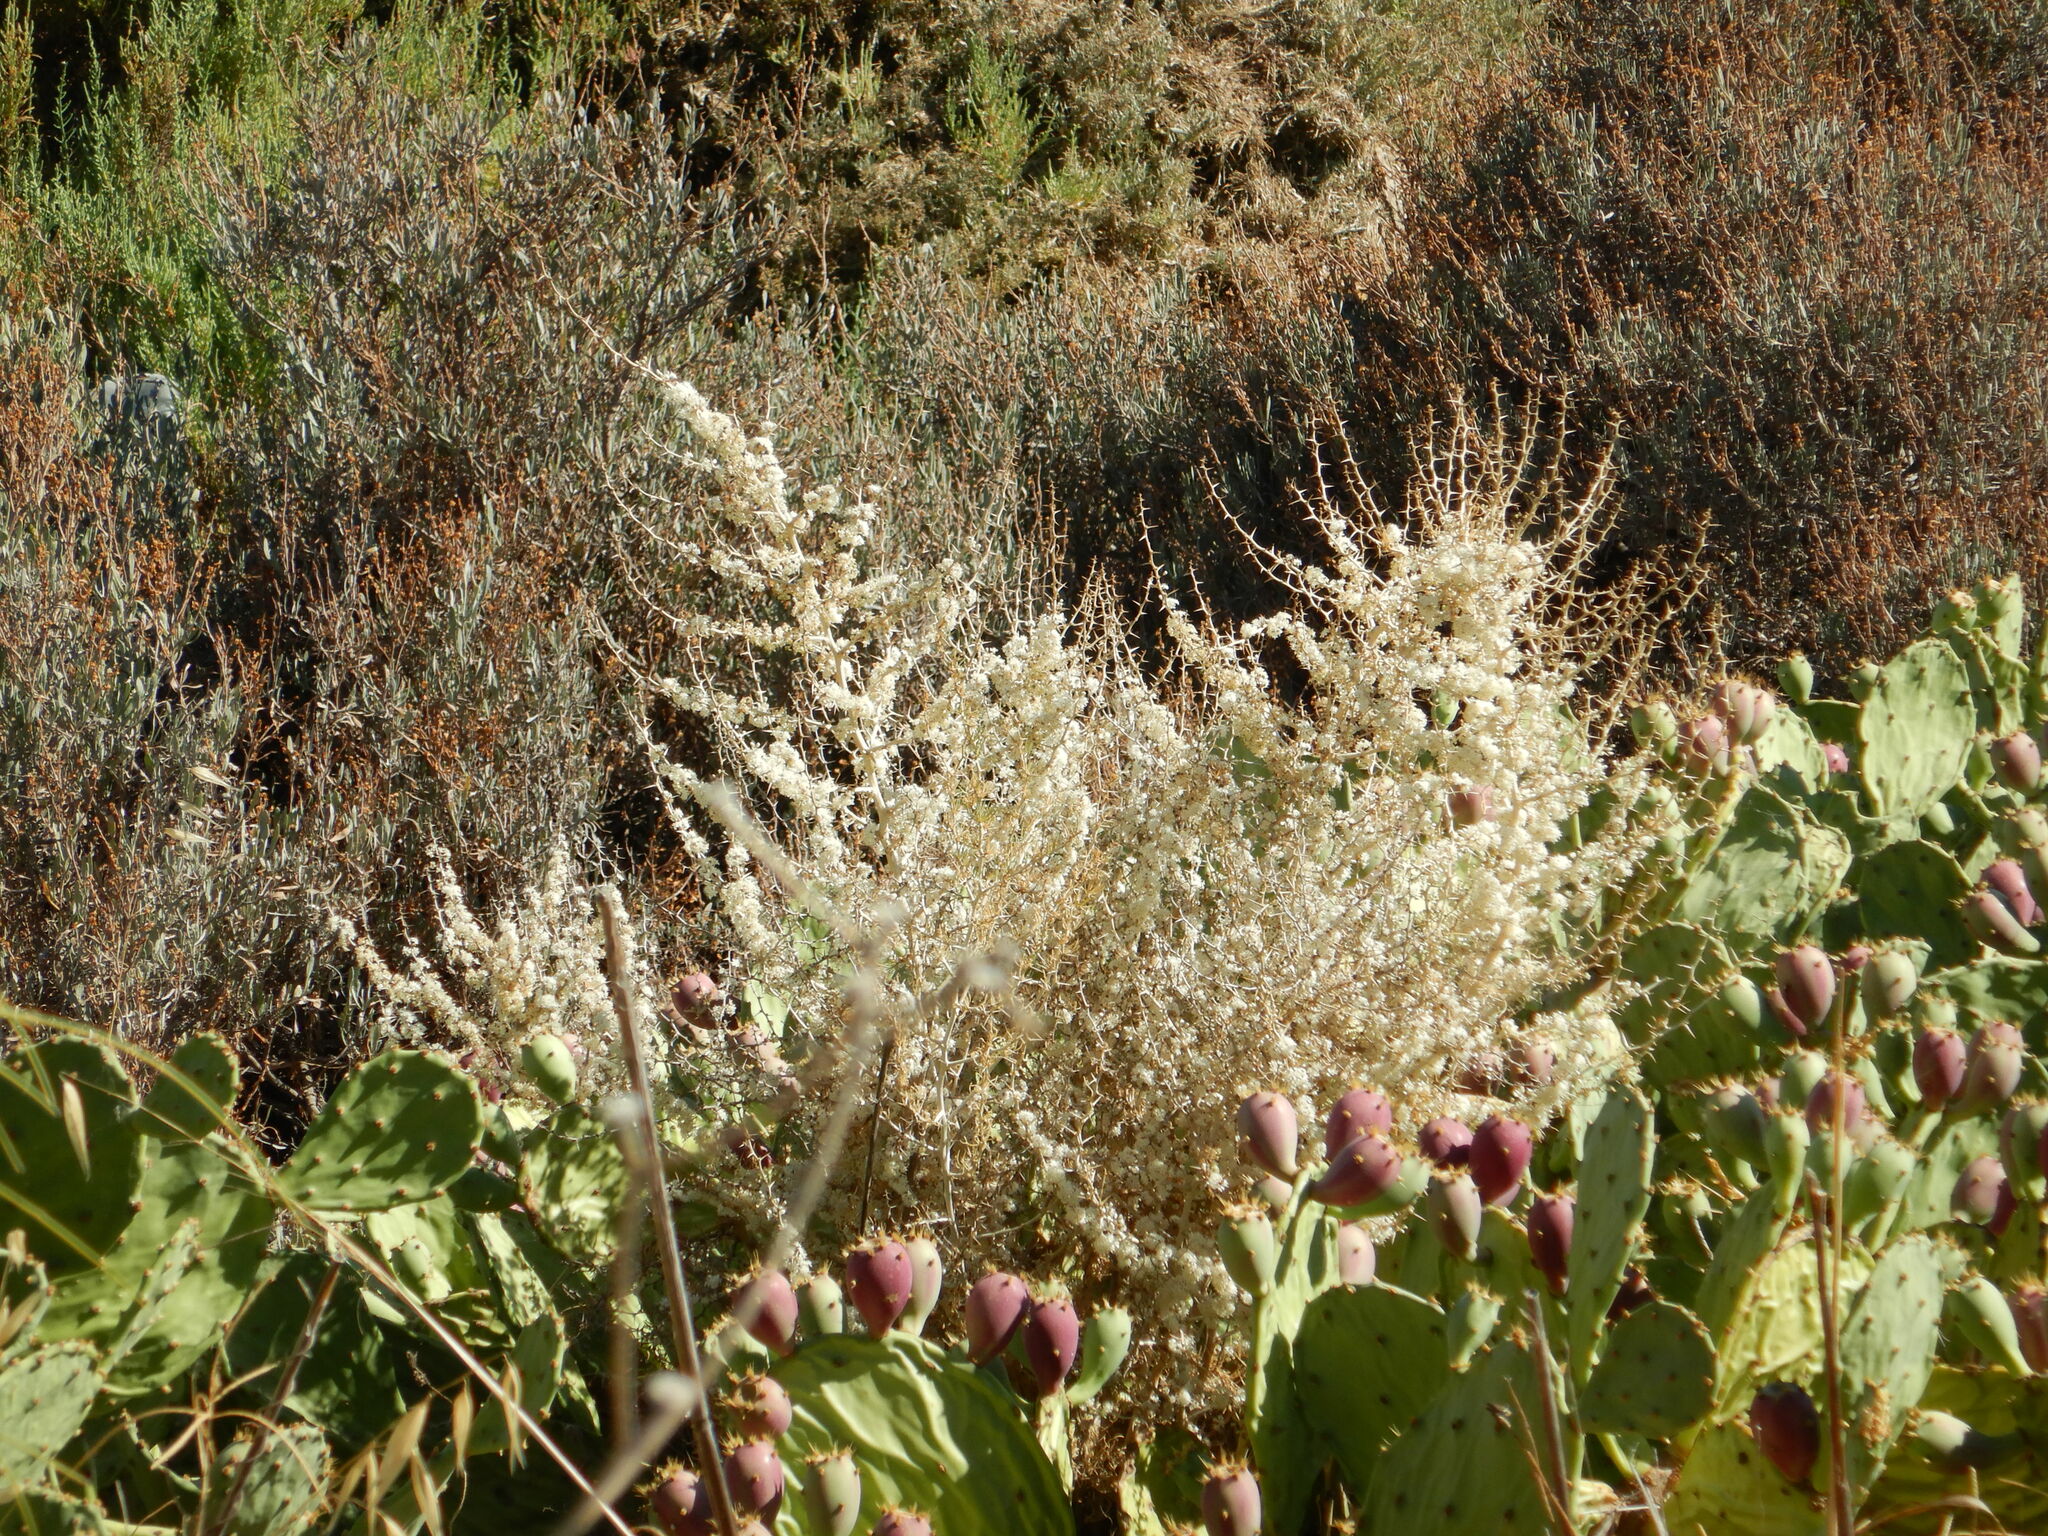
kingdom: Plantae
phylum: Tracheophyta
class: Liliopsida
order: Asparagales
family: Asparagaceae
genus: Asparagus
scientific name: Asparagus albus
